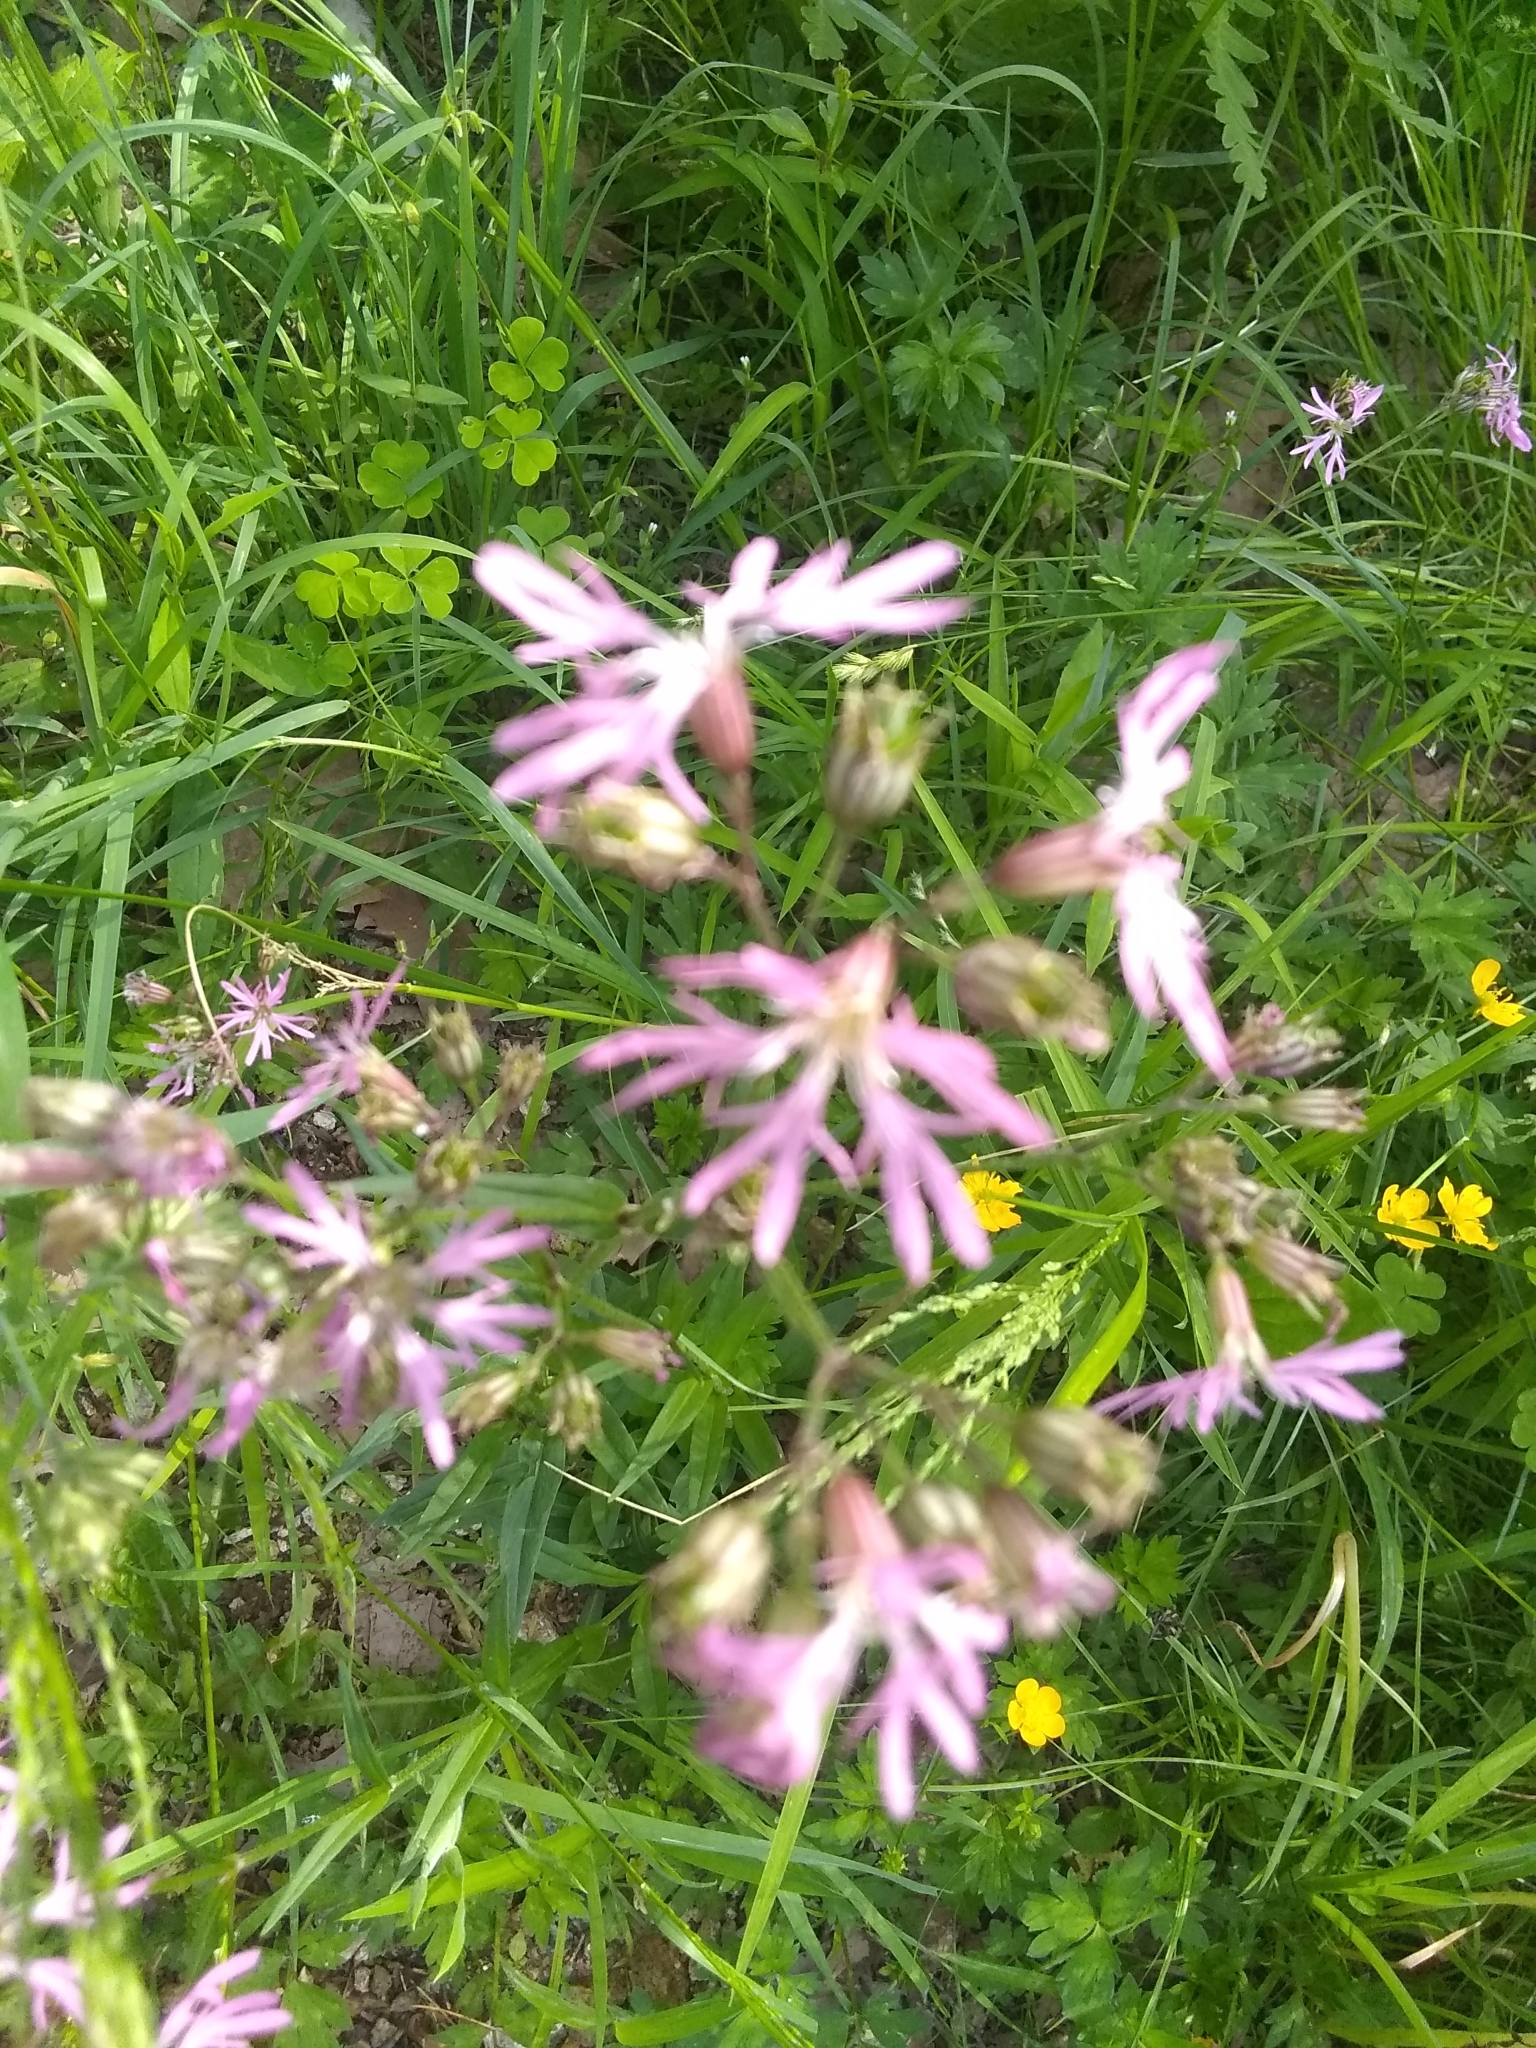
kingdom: Plantae
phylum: Tracheophyta
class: Magnoliopsida
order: Caryophyllales
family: Caryophyllaceae
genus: Silene
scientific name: Silene flos-cuculi
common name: Ragged-robin
